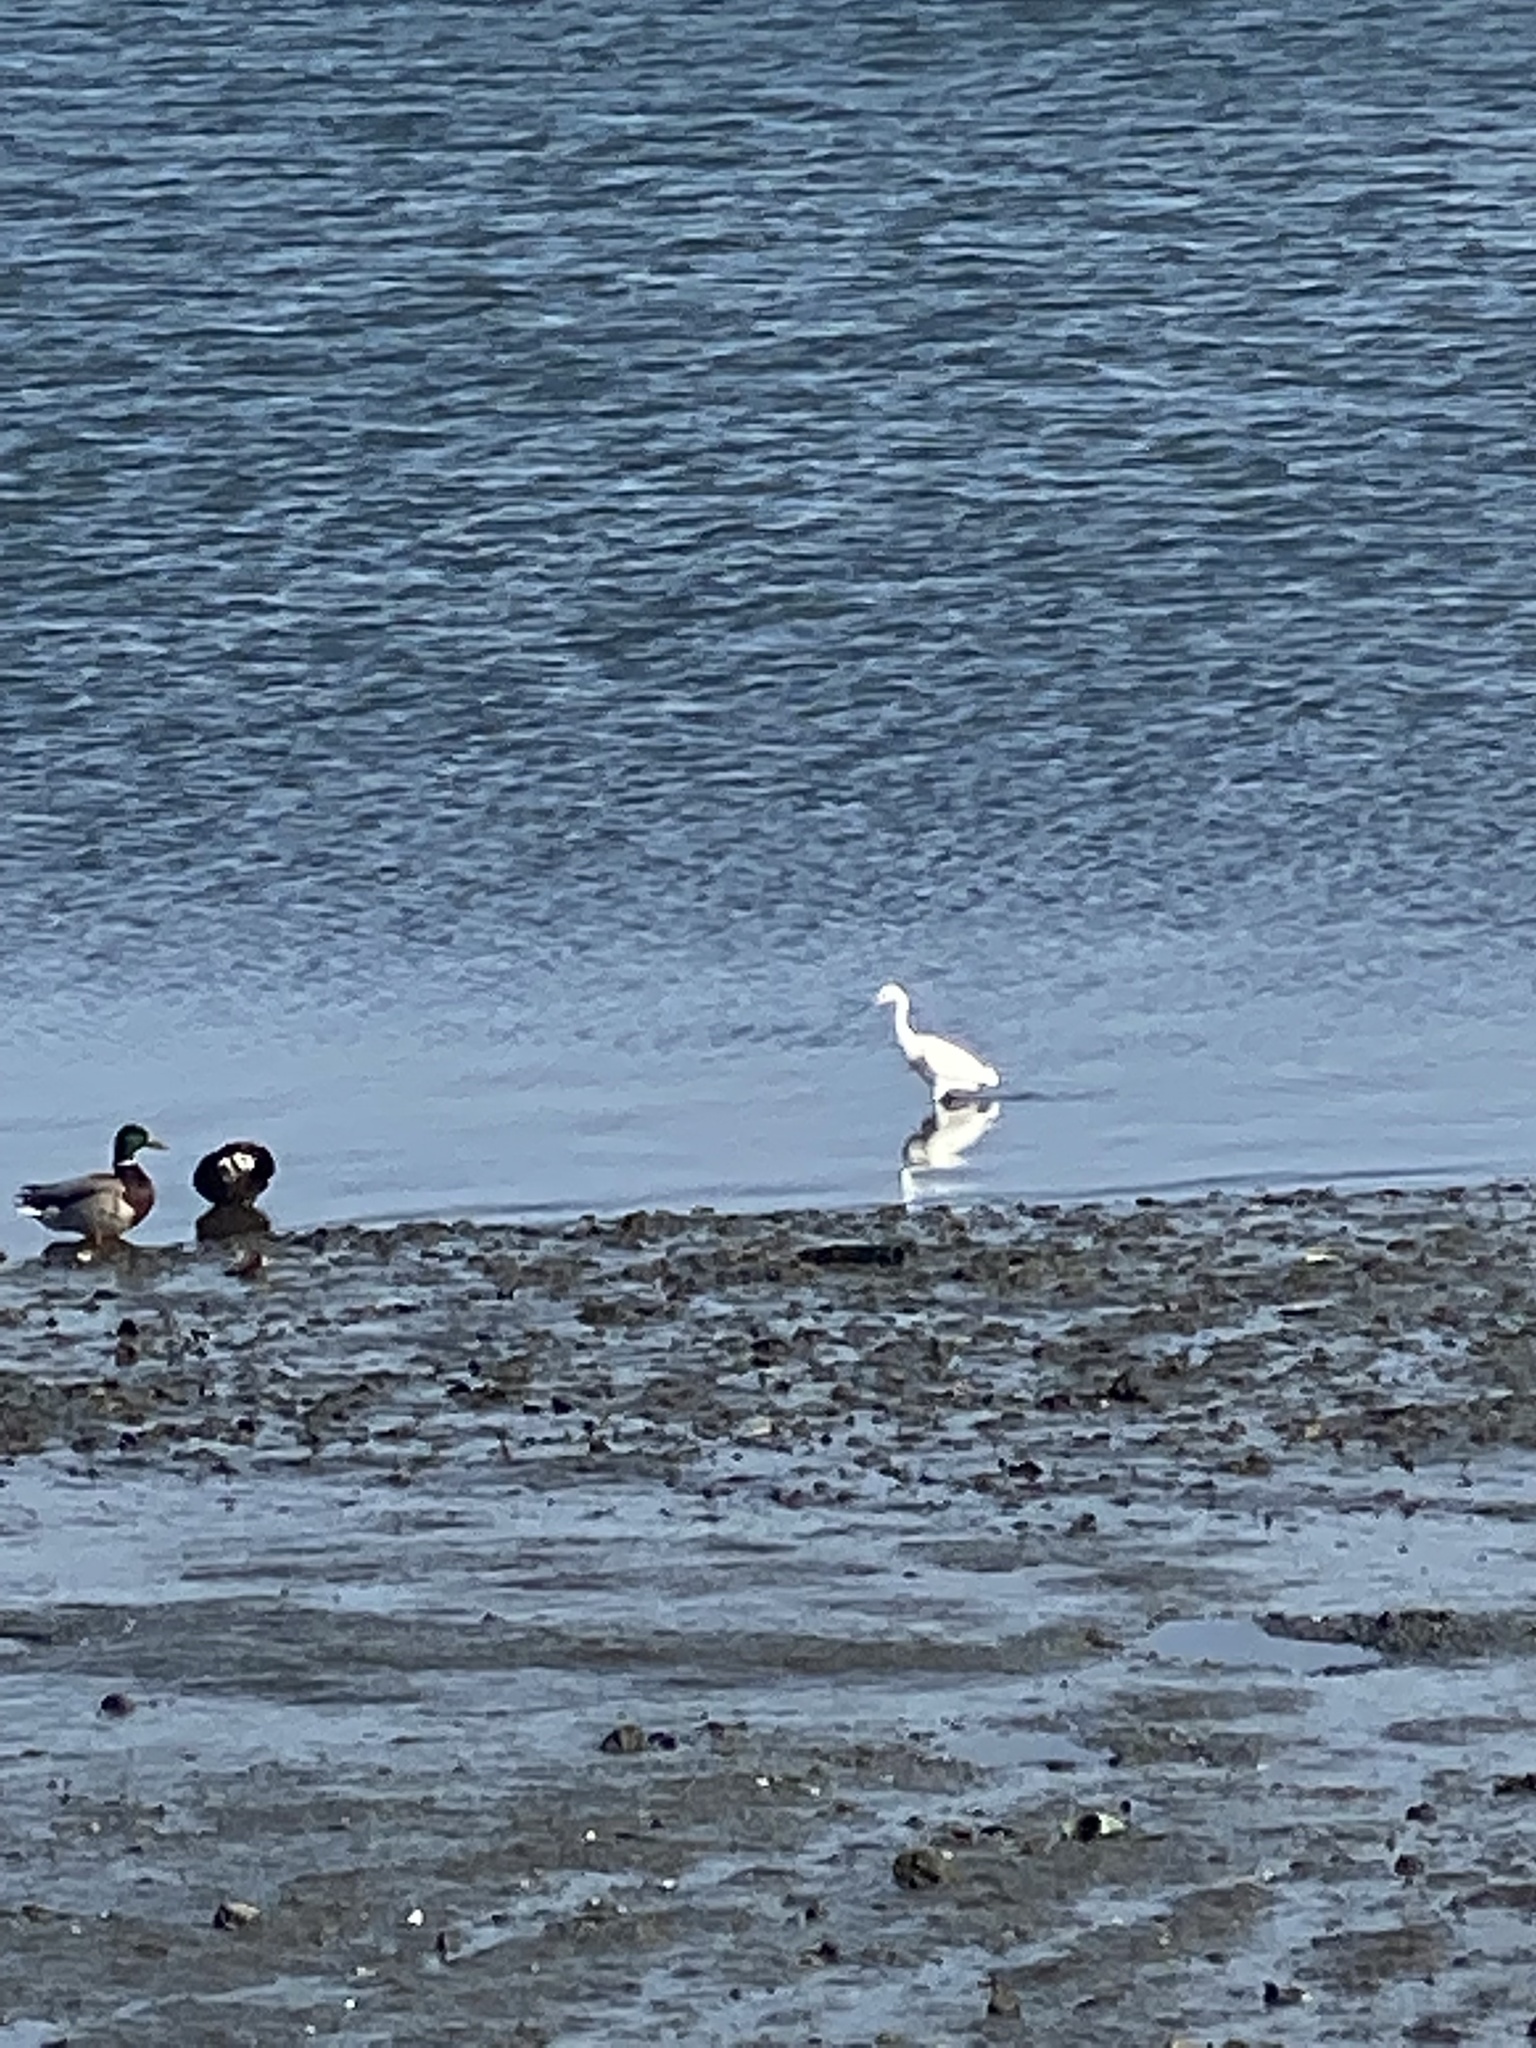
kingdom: Animalia
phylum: Chordata
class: Aves
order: Pelecaniformes
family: Ardeidae
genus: Egretta
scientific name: Egretta thula
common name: Snowy egret
